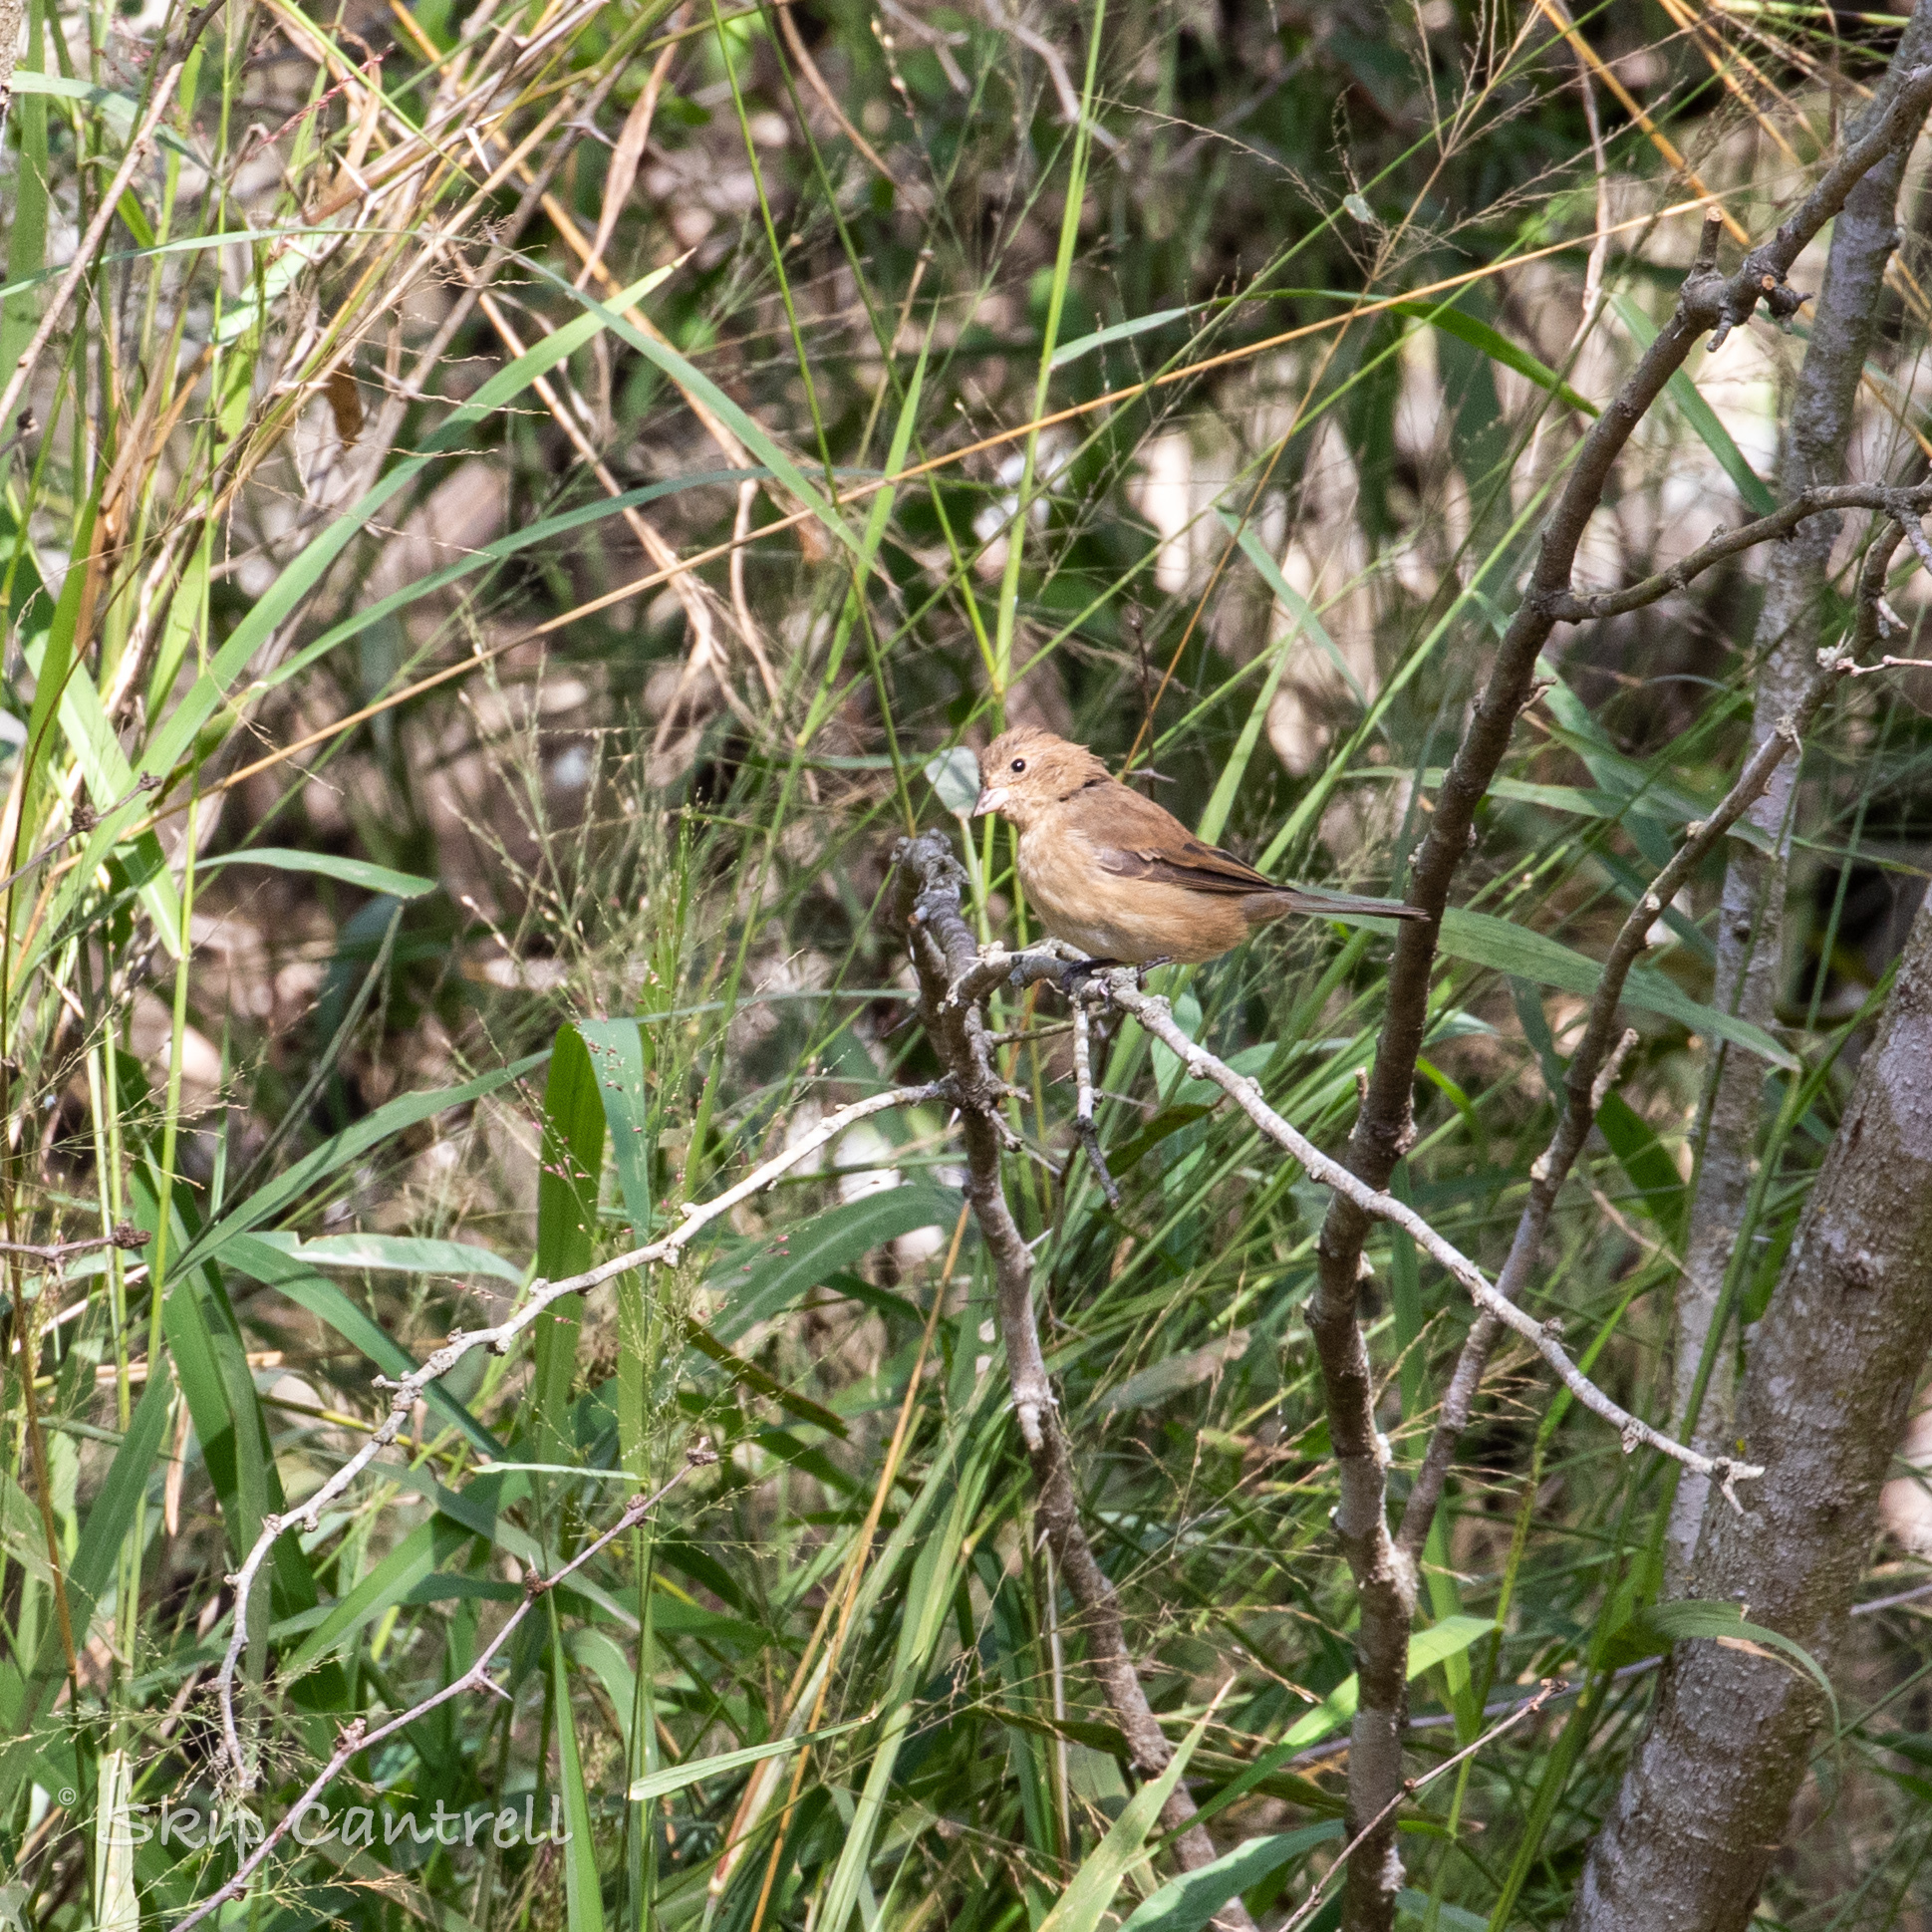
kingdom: Animalia
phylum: Chordata
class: Aves
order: Passeriformes
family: Cardinalidae
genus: Passerina
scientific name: Passerina cyanea
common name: Indigo bunting
